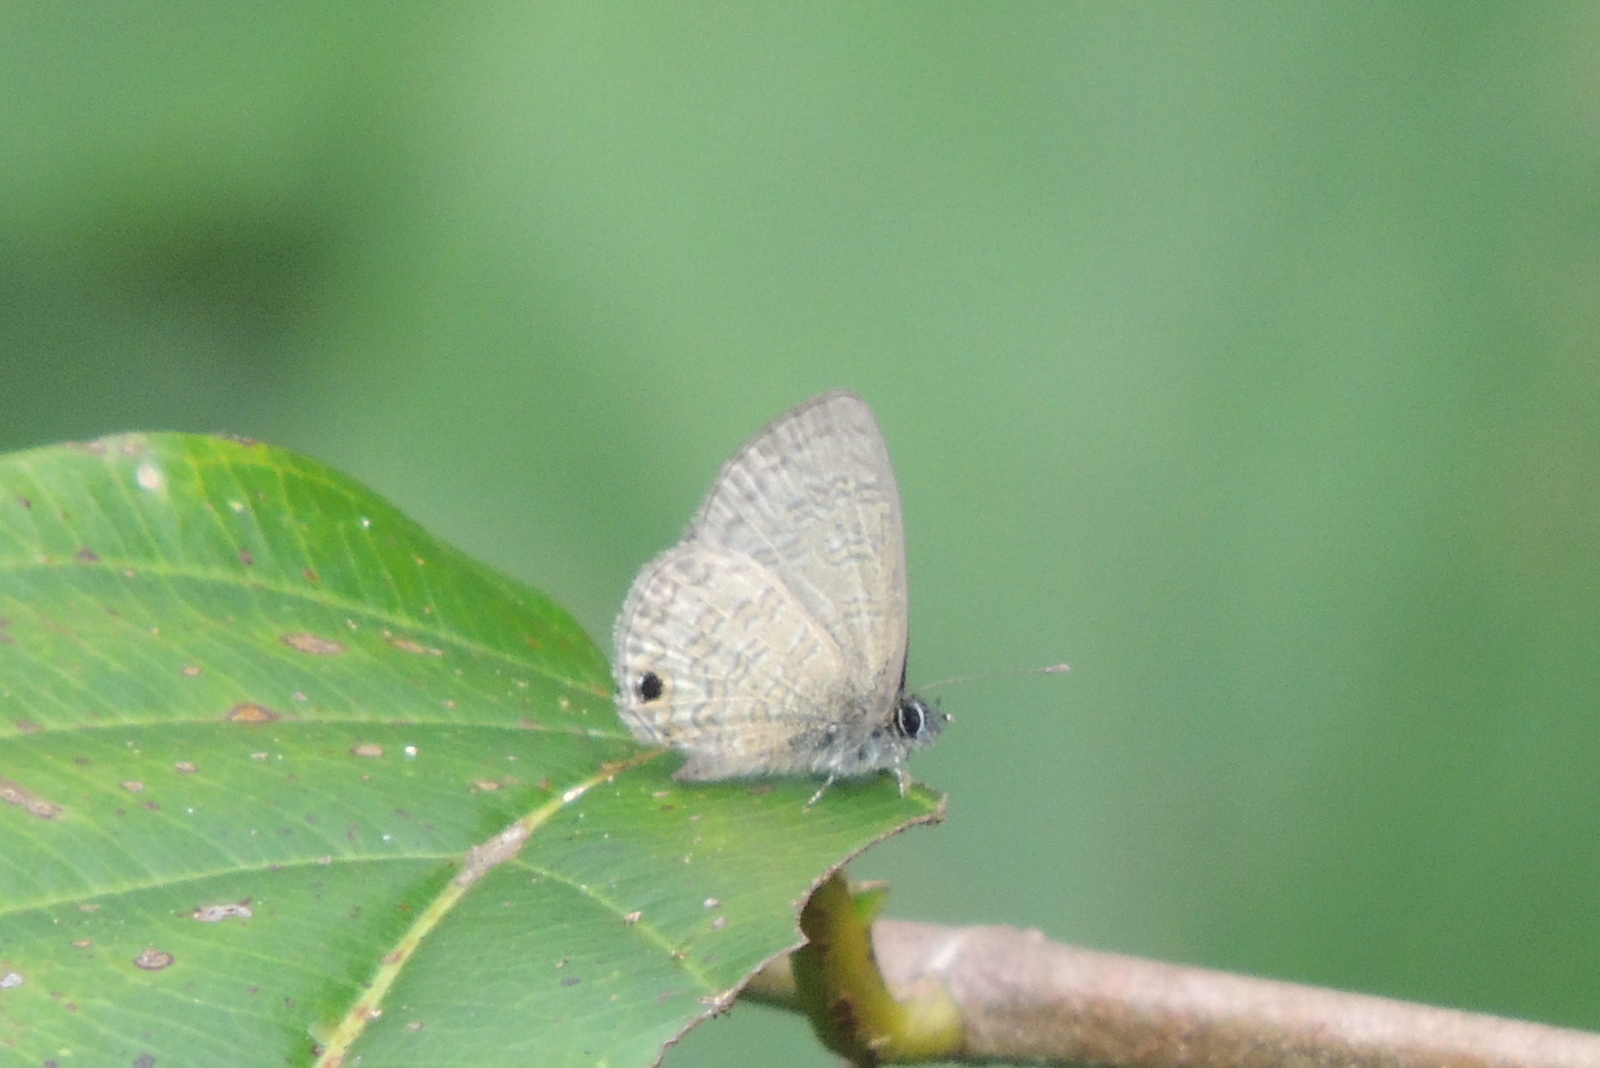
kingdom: Animalia
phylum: Arthropoda
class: Insecta
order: Lepidoptera
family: Lycaenidae
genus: Prosotas
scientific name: Prosotas nora
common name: Common line blue
